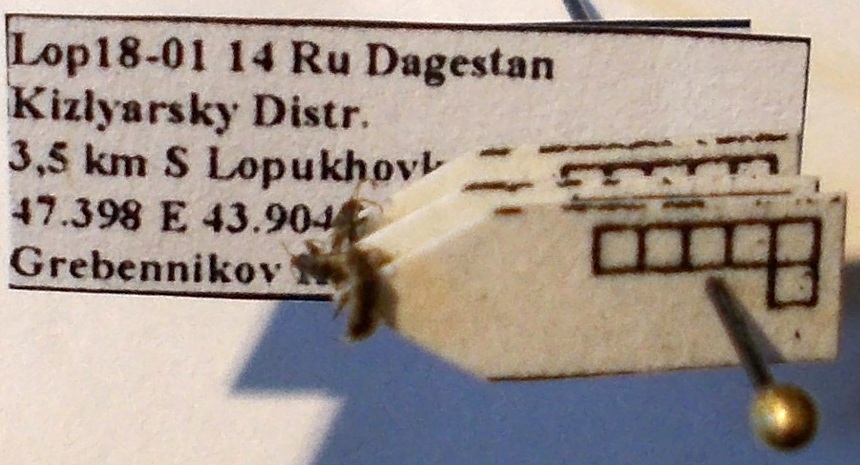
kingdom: Animalia
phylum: Arthropoda
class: Insecta
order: Hemiptera
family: Oxycarenidae
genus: Leptodemus
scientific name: Leptodemus minutus
